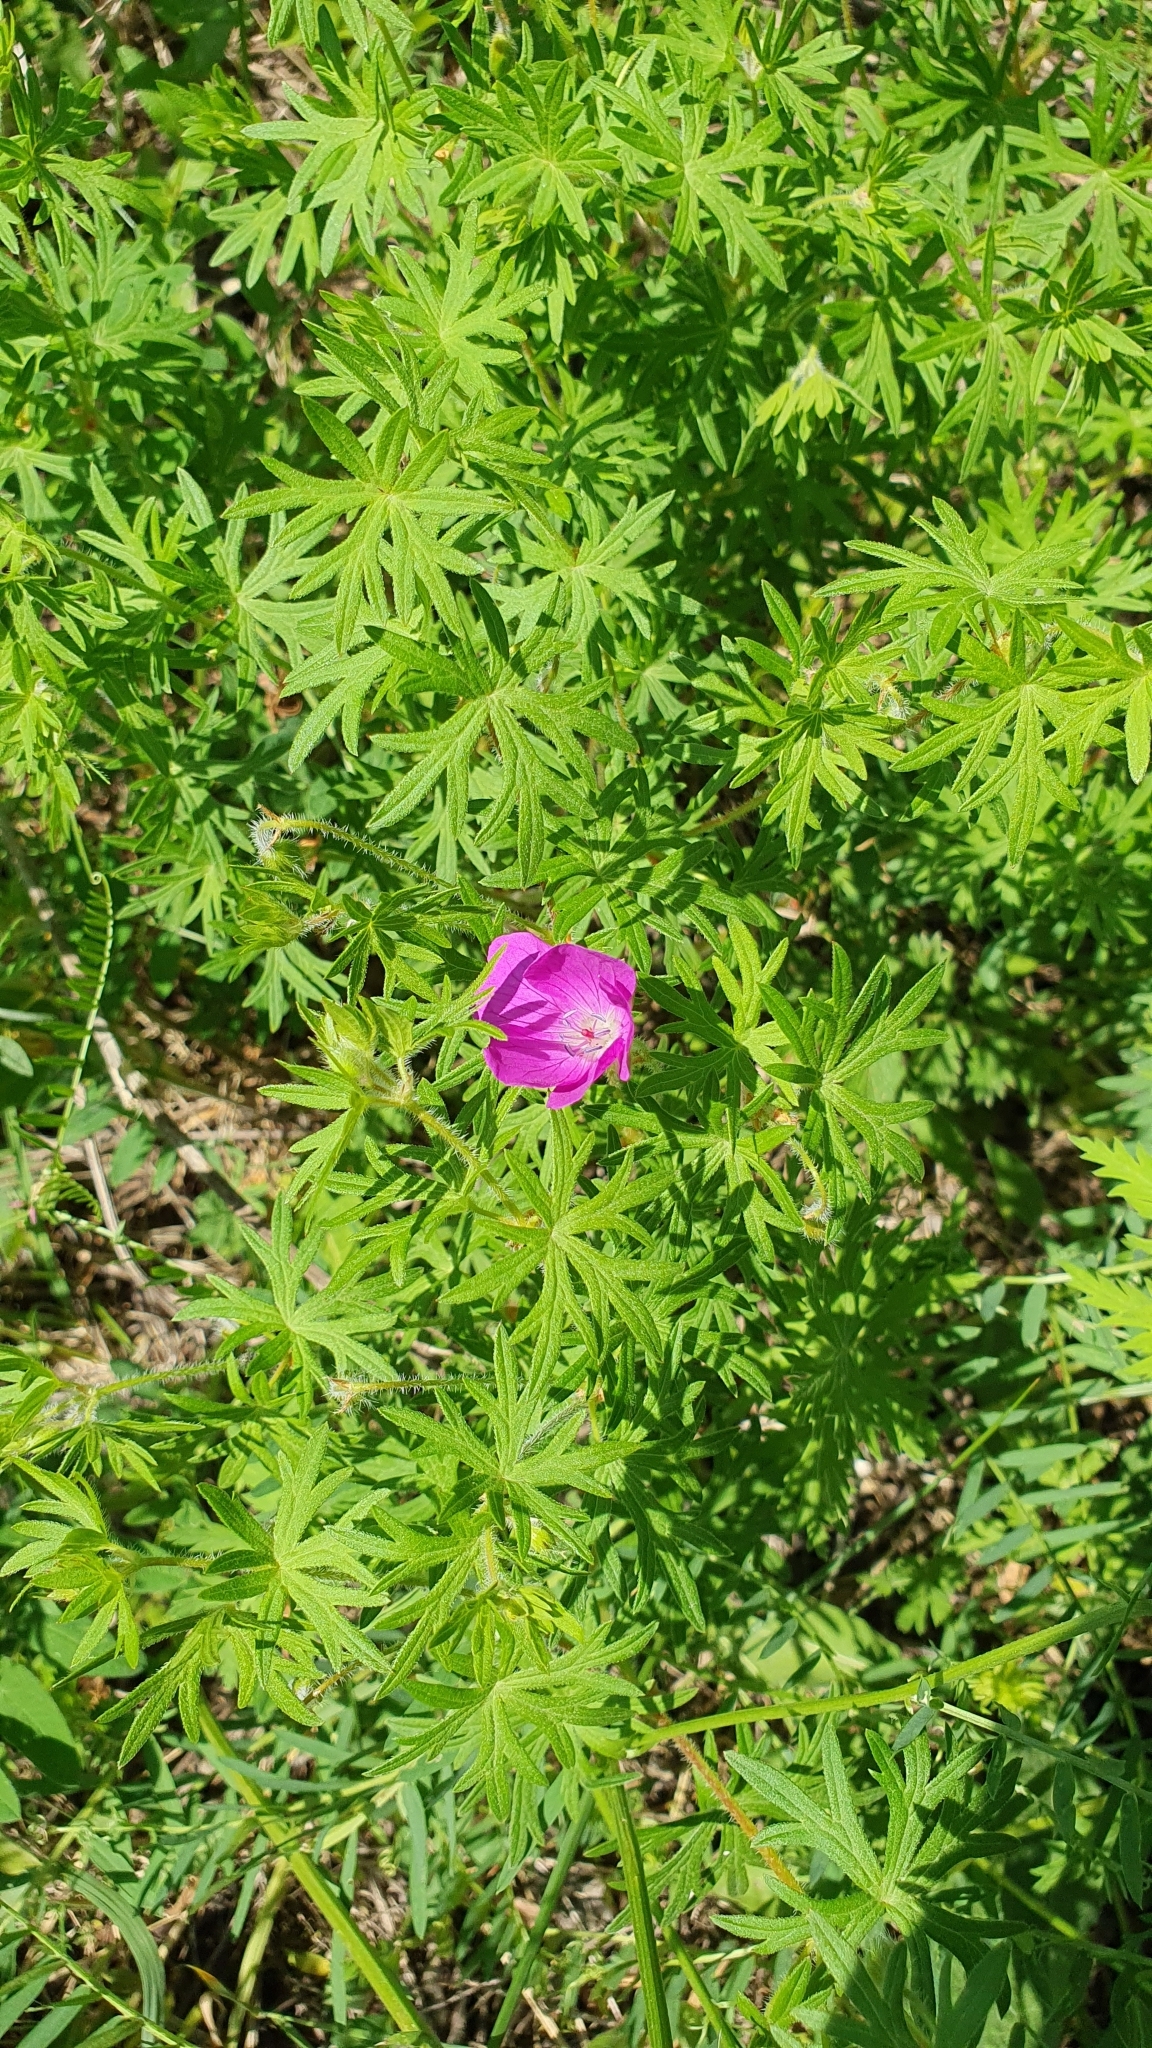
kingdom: Plantae
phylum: Tracheophyta
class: Magnoliopsida
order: Geraniales
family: Geraniaceae
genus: Geranium
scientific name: Geranium sanguineum
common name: Bloody crane's-bill
